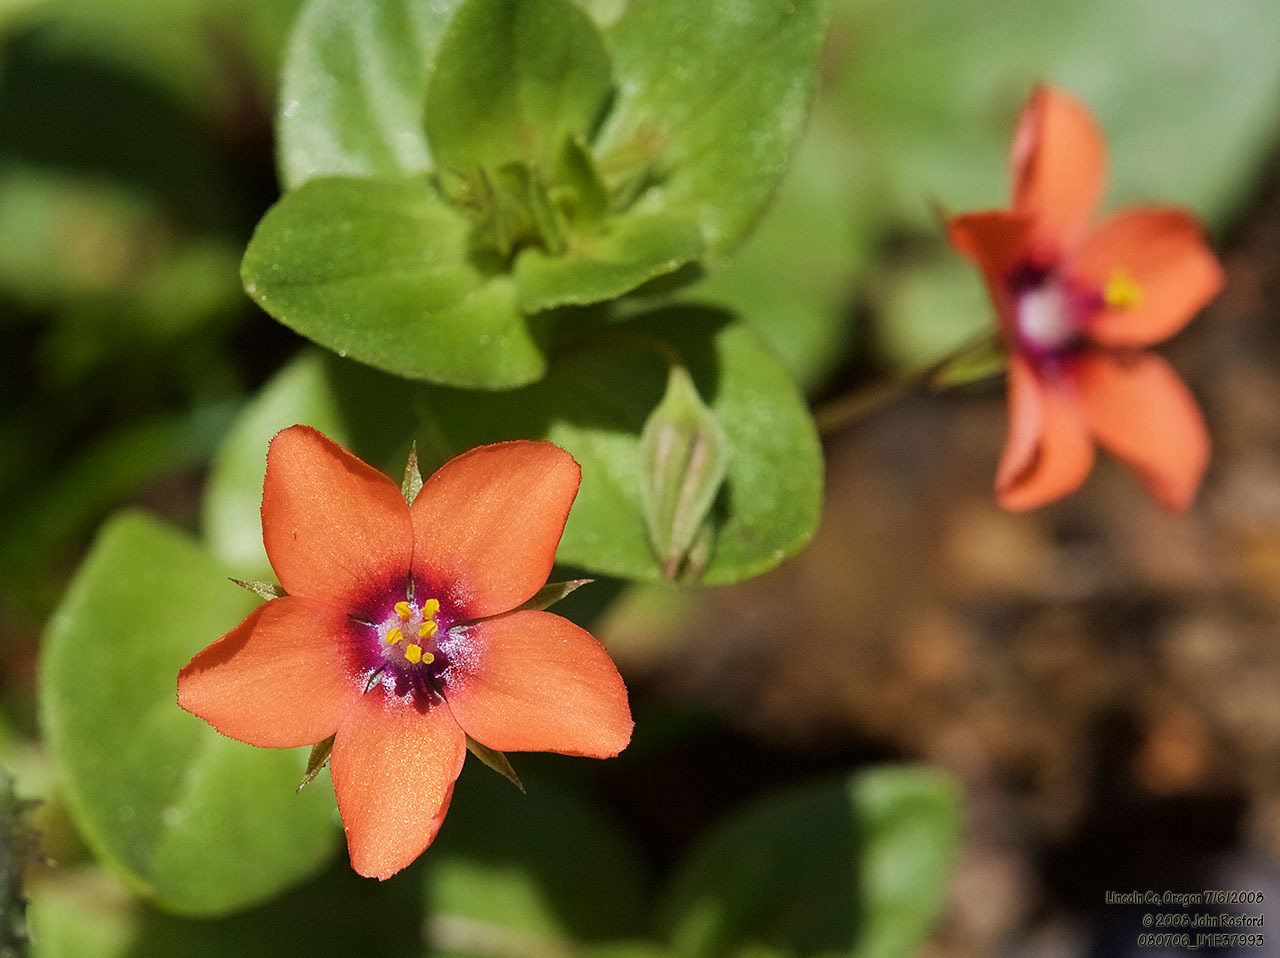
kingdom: Plantae
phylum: Tracheophyta
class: Magnoliopsida
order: Ericales
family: Primulaceae
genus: Lysimachia
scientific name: Lysimachia arvensis
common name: Scarlet pimpernel
